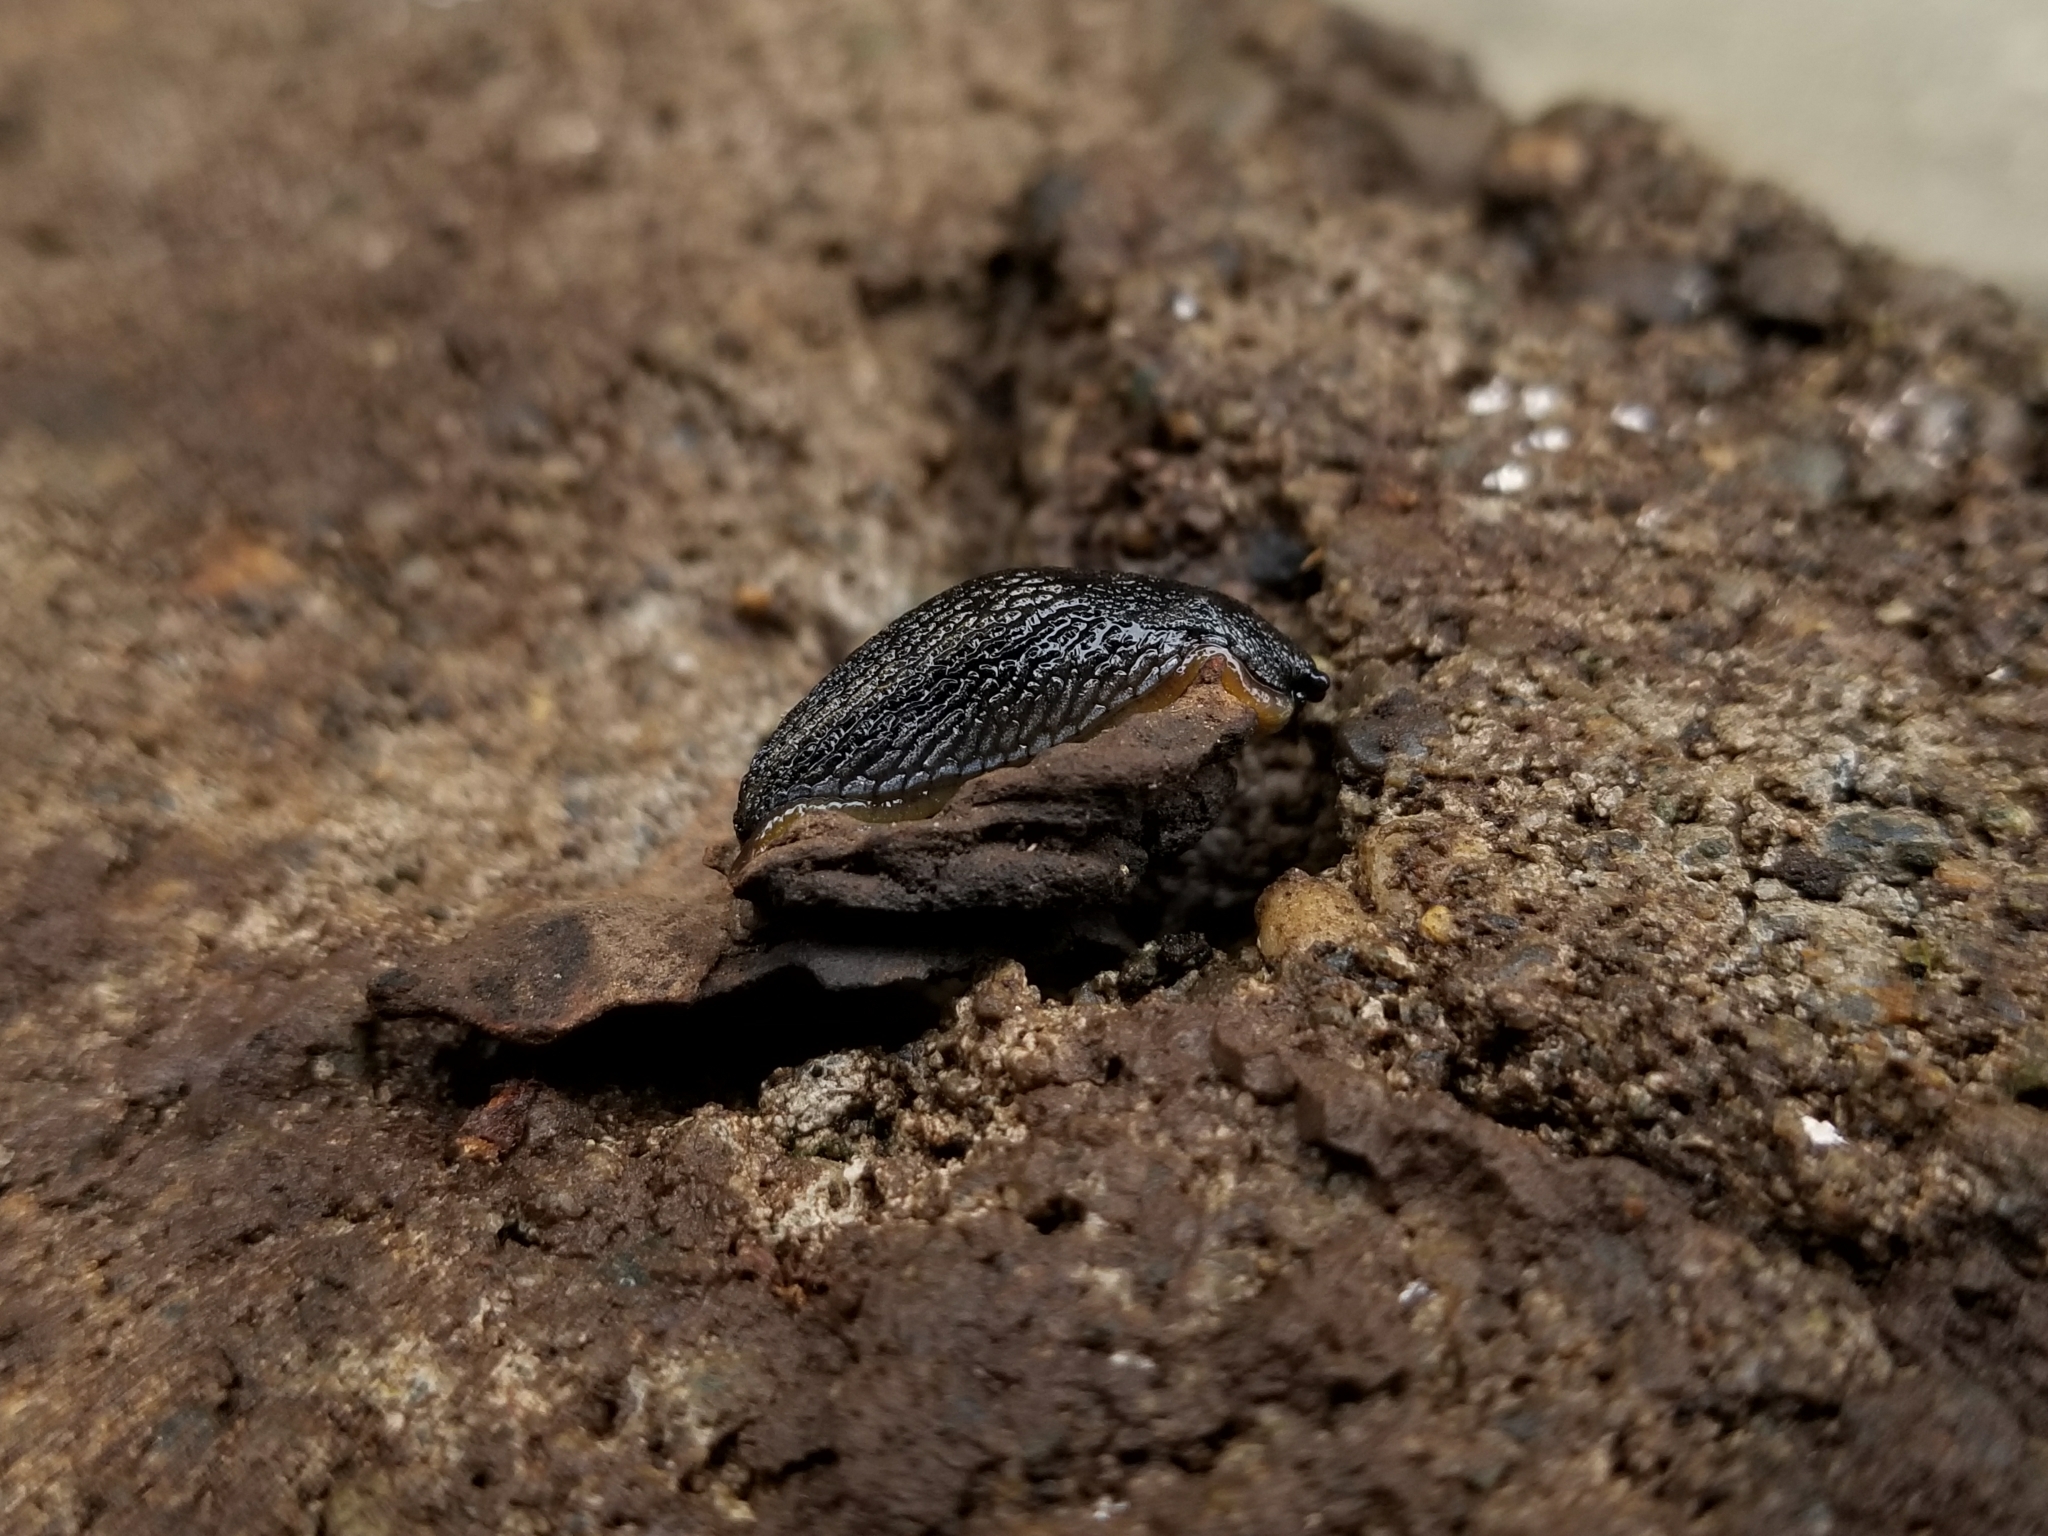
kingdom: Animalia
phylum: Mollusca
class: Gastropoda
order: Stylommatophora
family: Arionidae
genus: Arion
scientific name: Arion hortensis
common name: Garden arion
